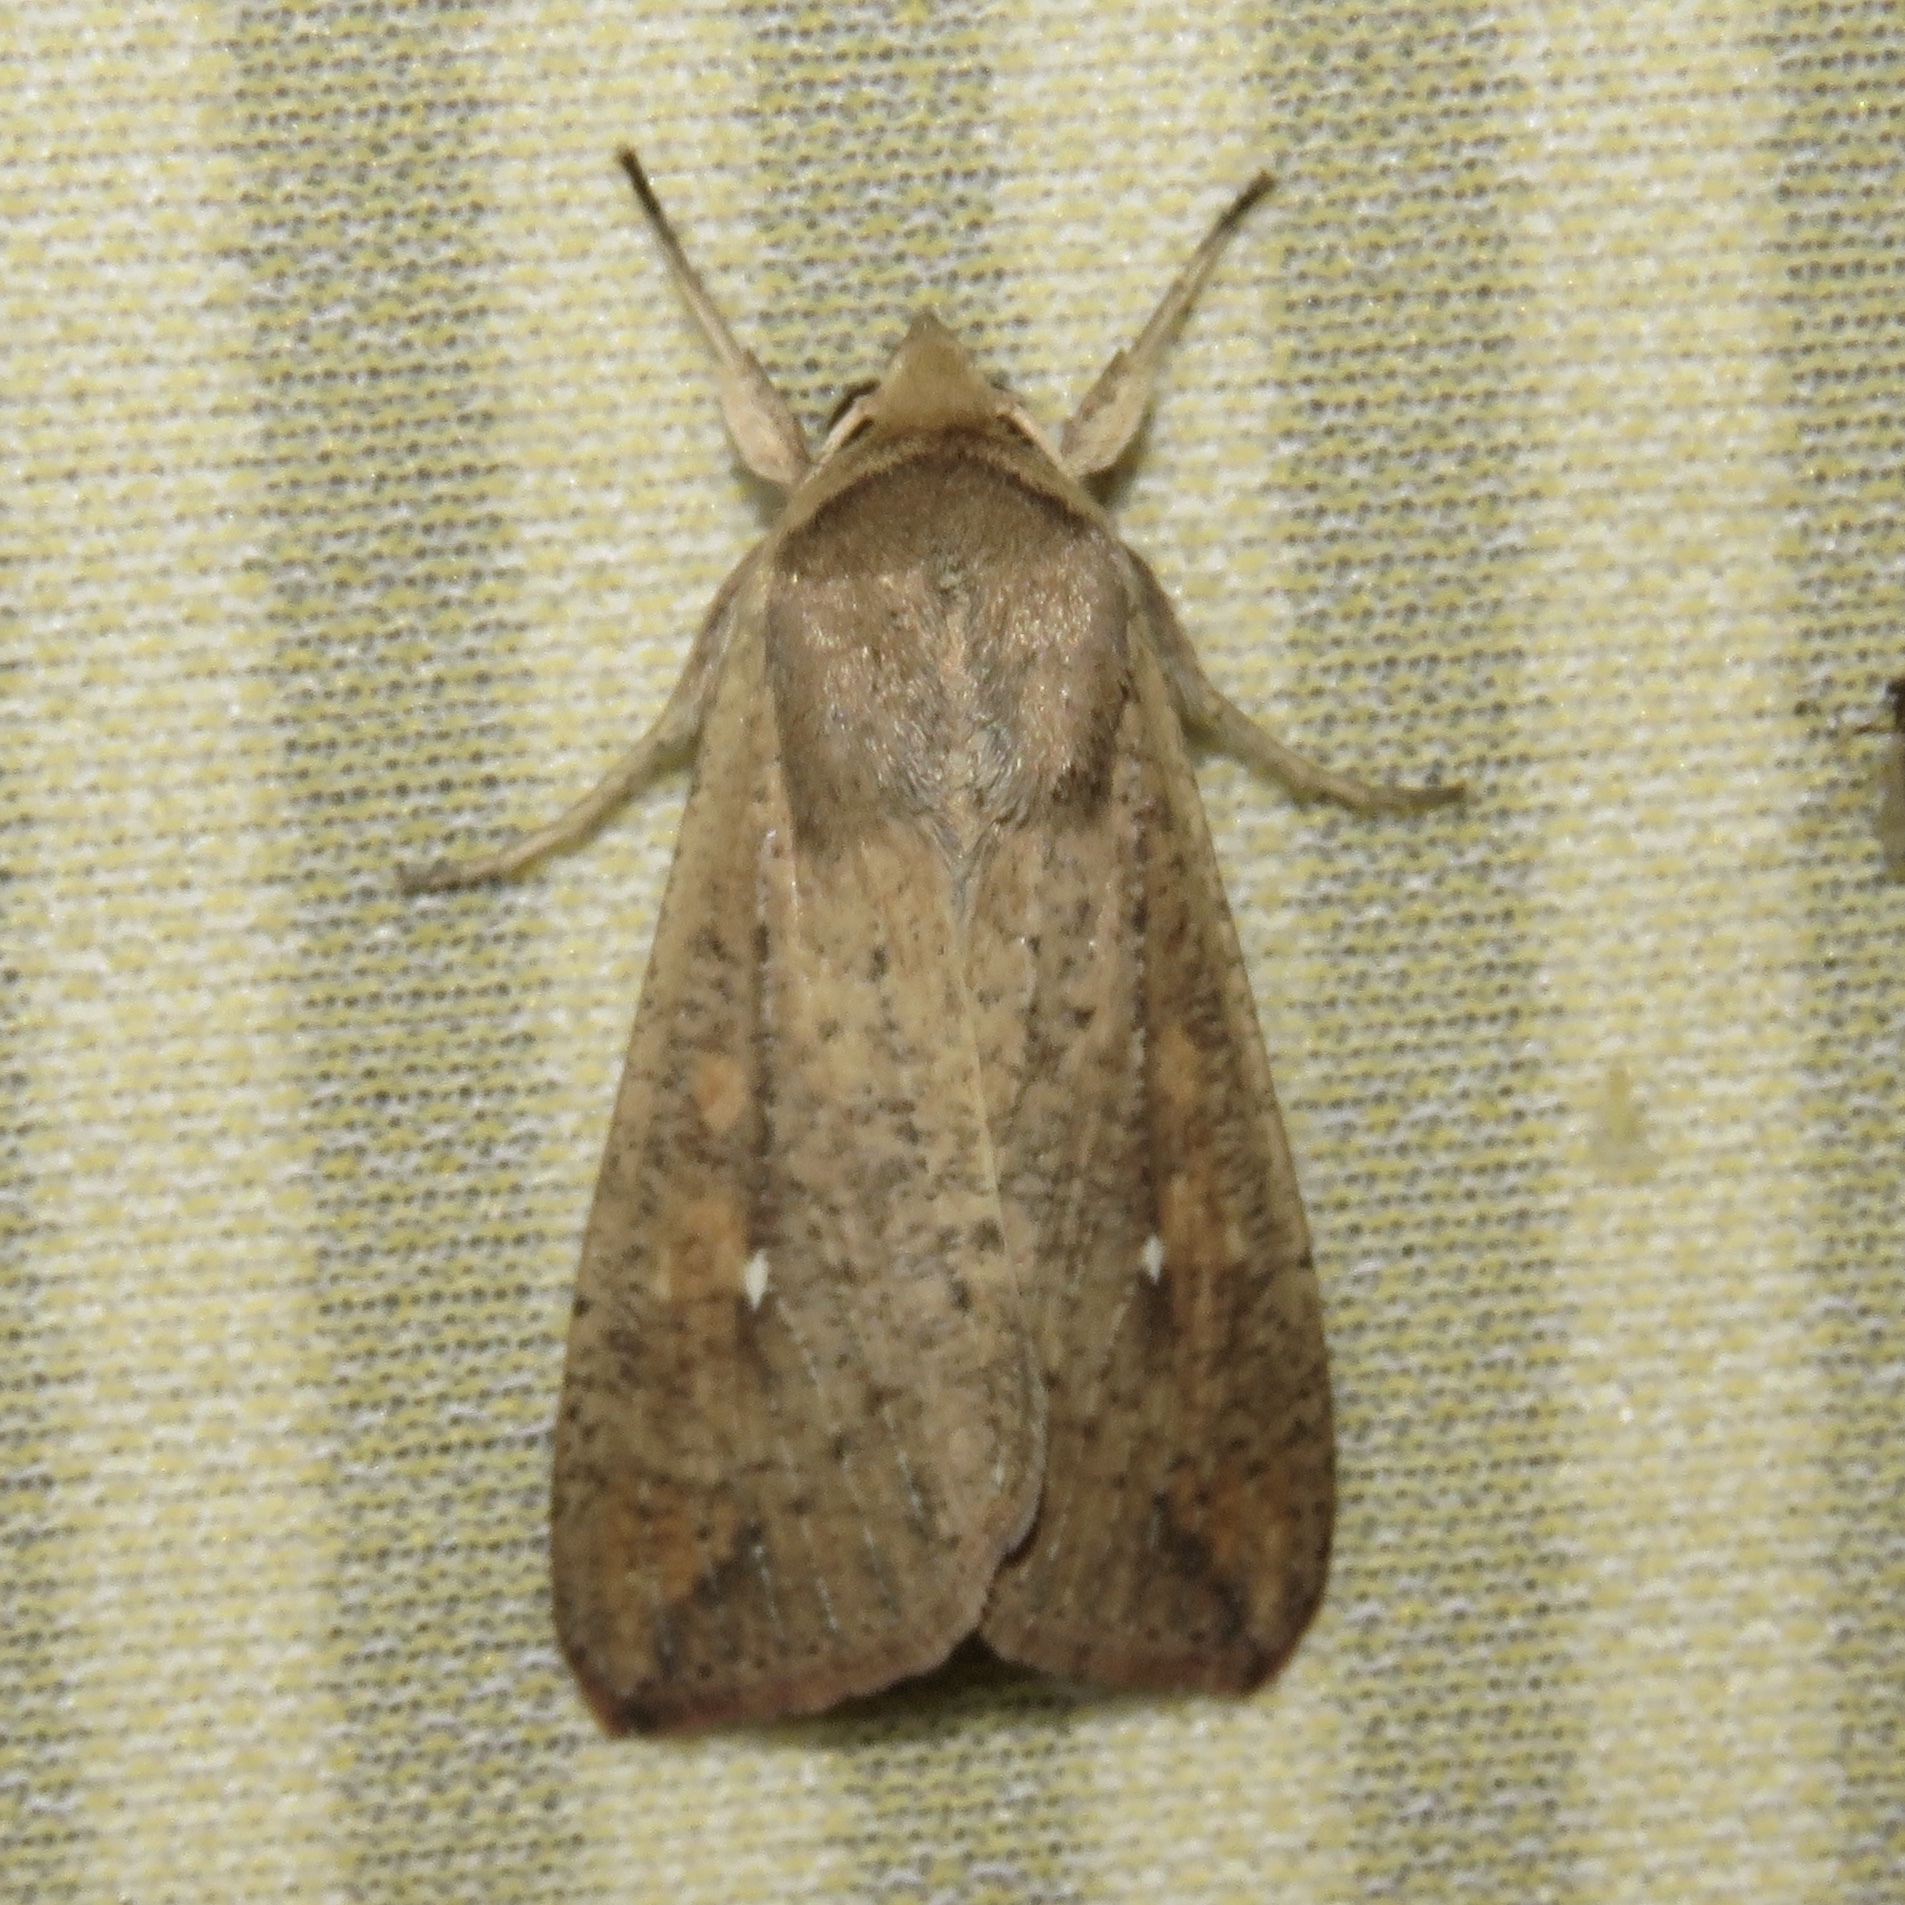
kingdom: Animalia
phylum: Arthropoda
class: Insecta
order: Lepidoptera
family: Noctuidae
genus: Mythimna
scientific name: Mythimna unipuncta
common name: White-speck
